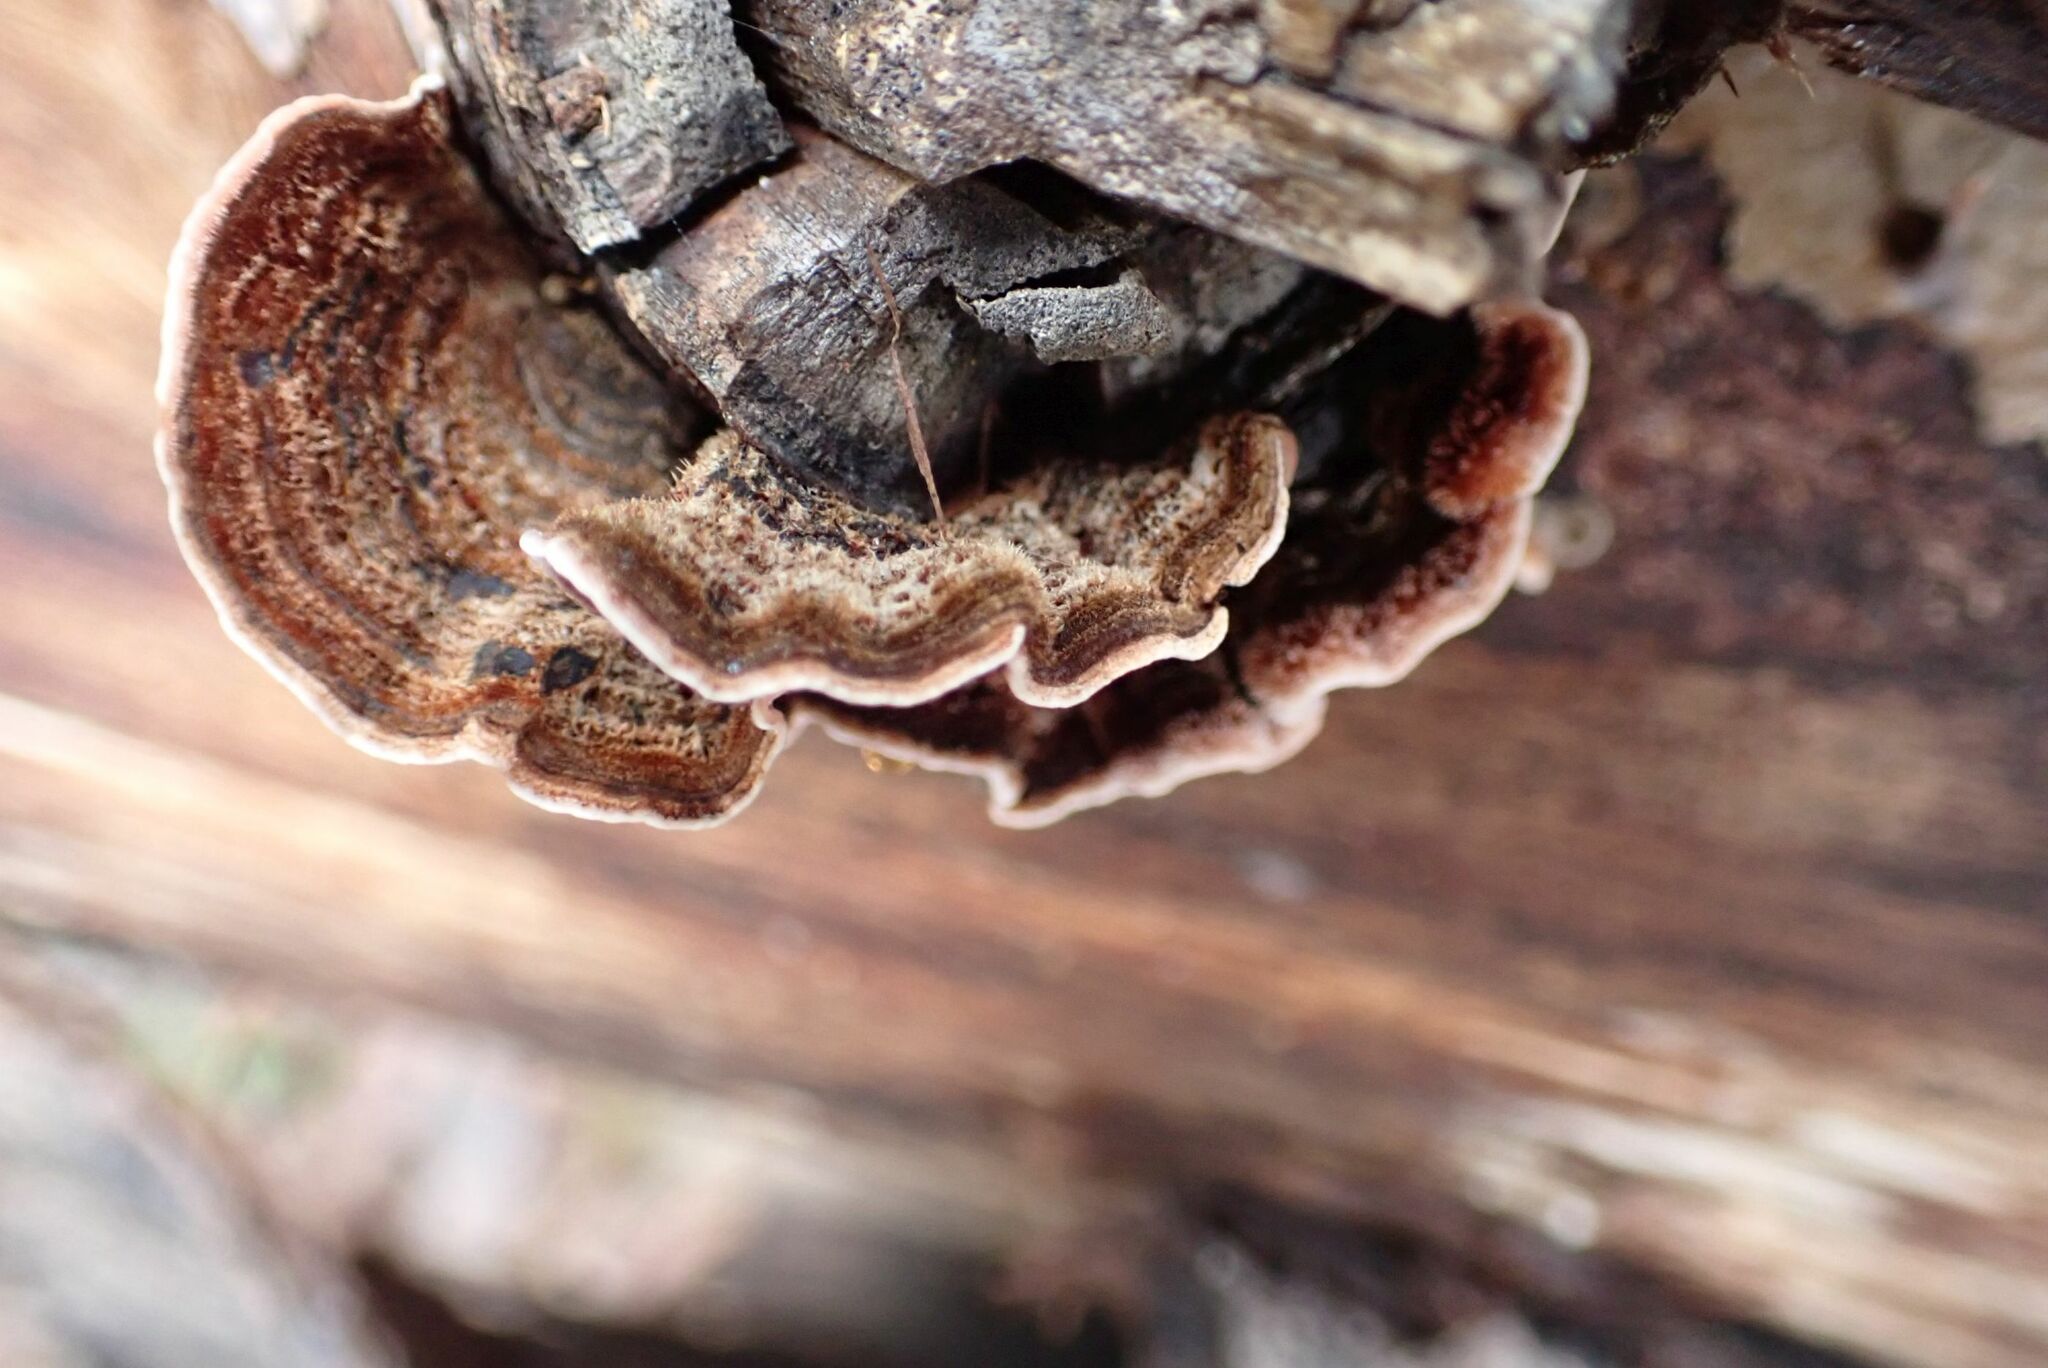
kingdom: Fungi
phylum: Basidiomycota
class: Agaricomycetes
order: Russulales
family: Stereaceae
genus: Stereum
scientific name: Stereum hirsutum
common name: Hairy curtain crust
